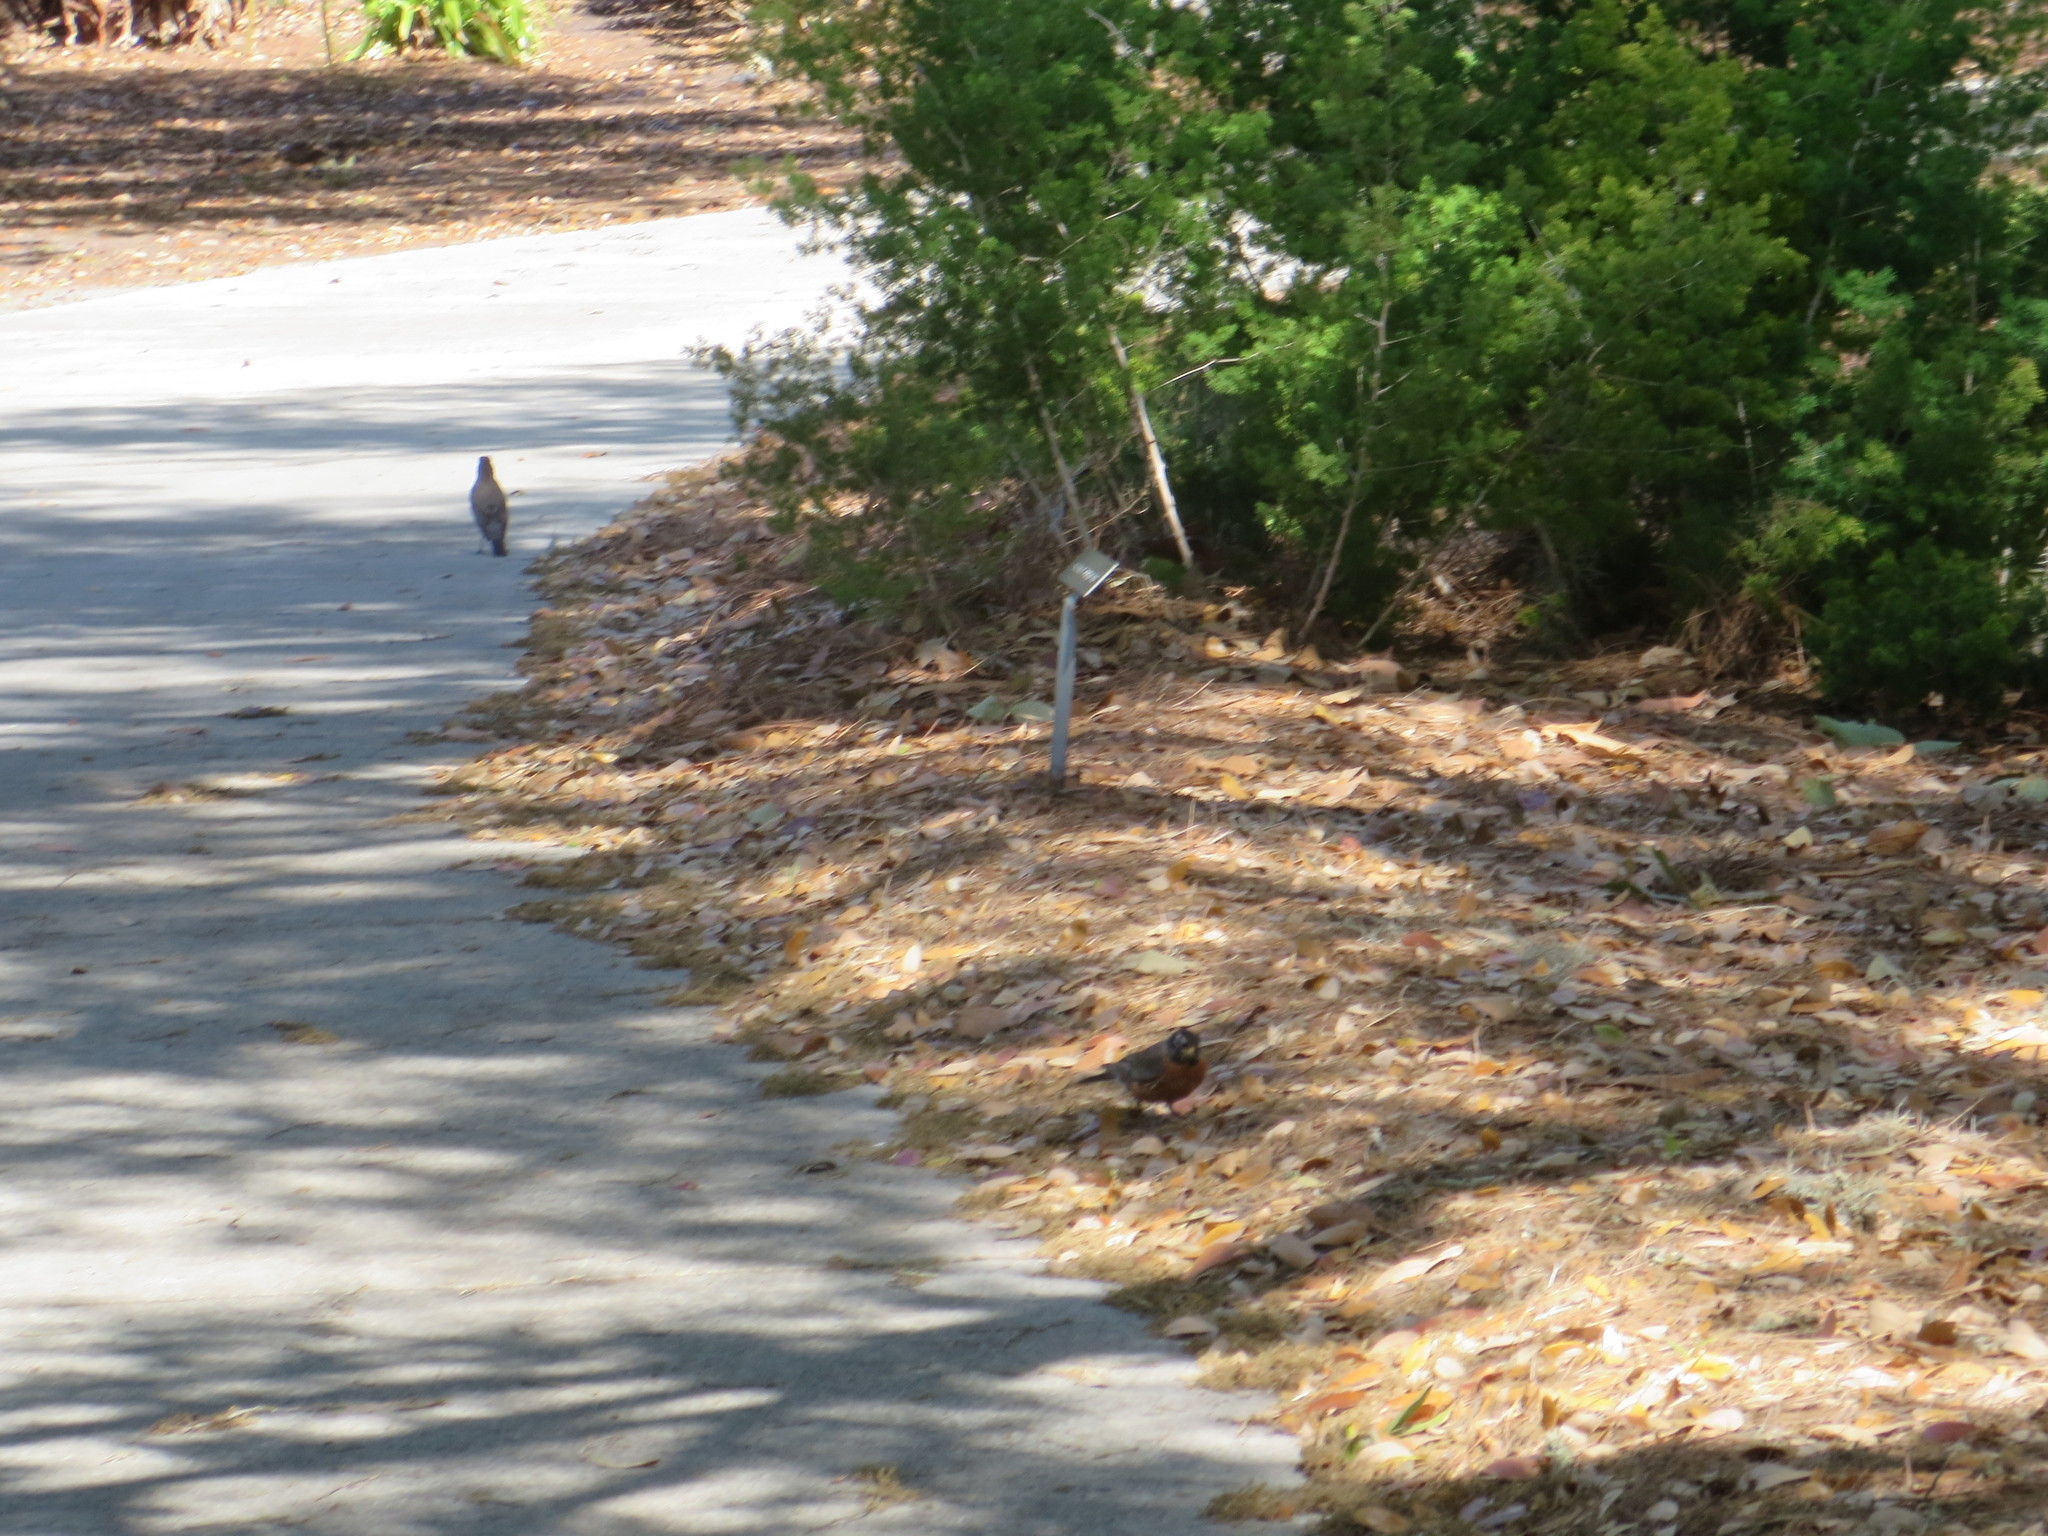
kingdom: Animalia
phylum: Chordata
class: Aves
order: Passeriformes
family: Turdidae
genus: Turdus
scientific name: Turdus migratorius
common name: American robin
